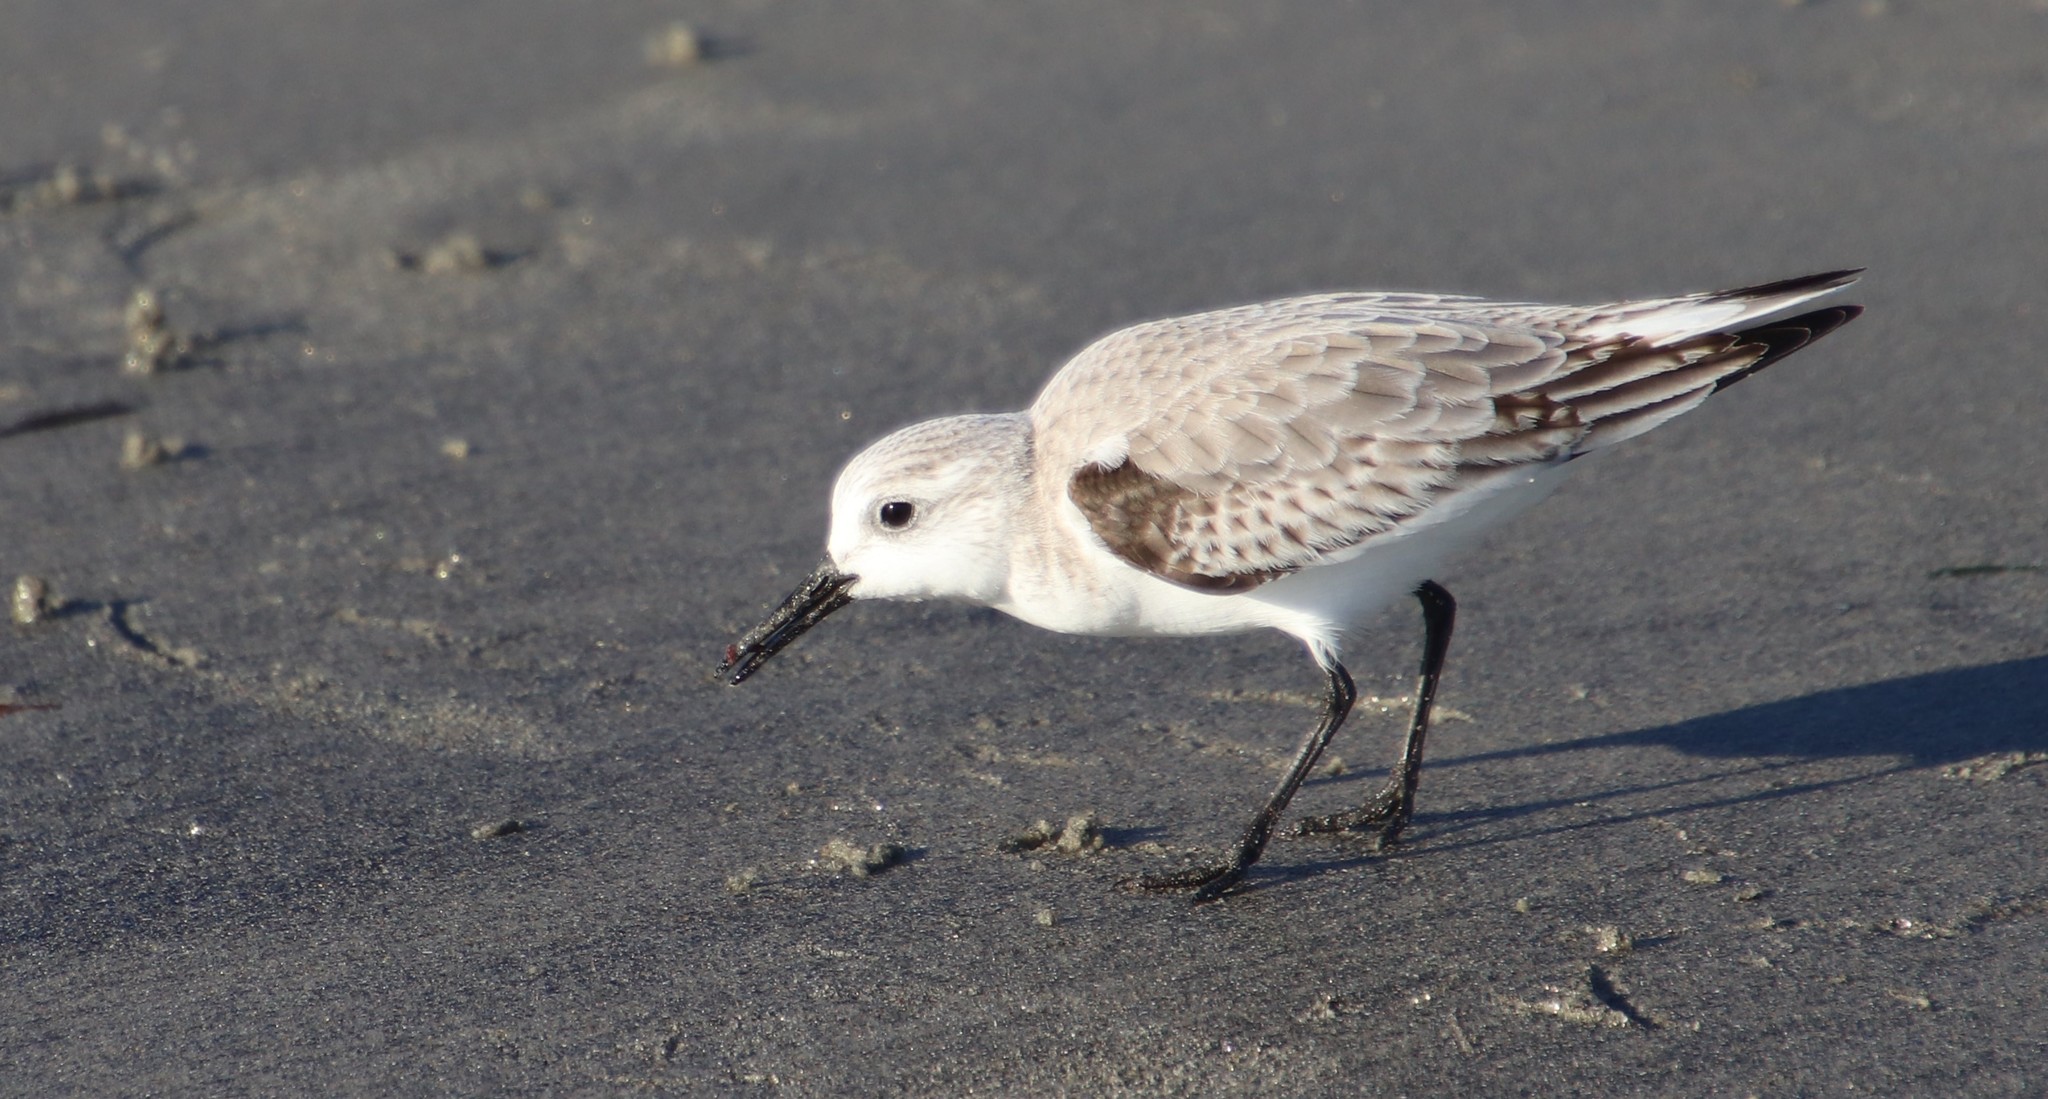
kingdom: Animalia
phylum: Chordata
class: Aves
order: Charadriiformes
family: Scolopacidae
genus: Calidris
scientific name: Calidris alba
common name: Sanderling
